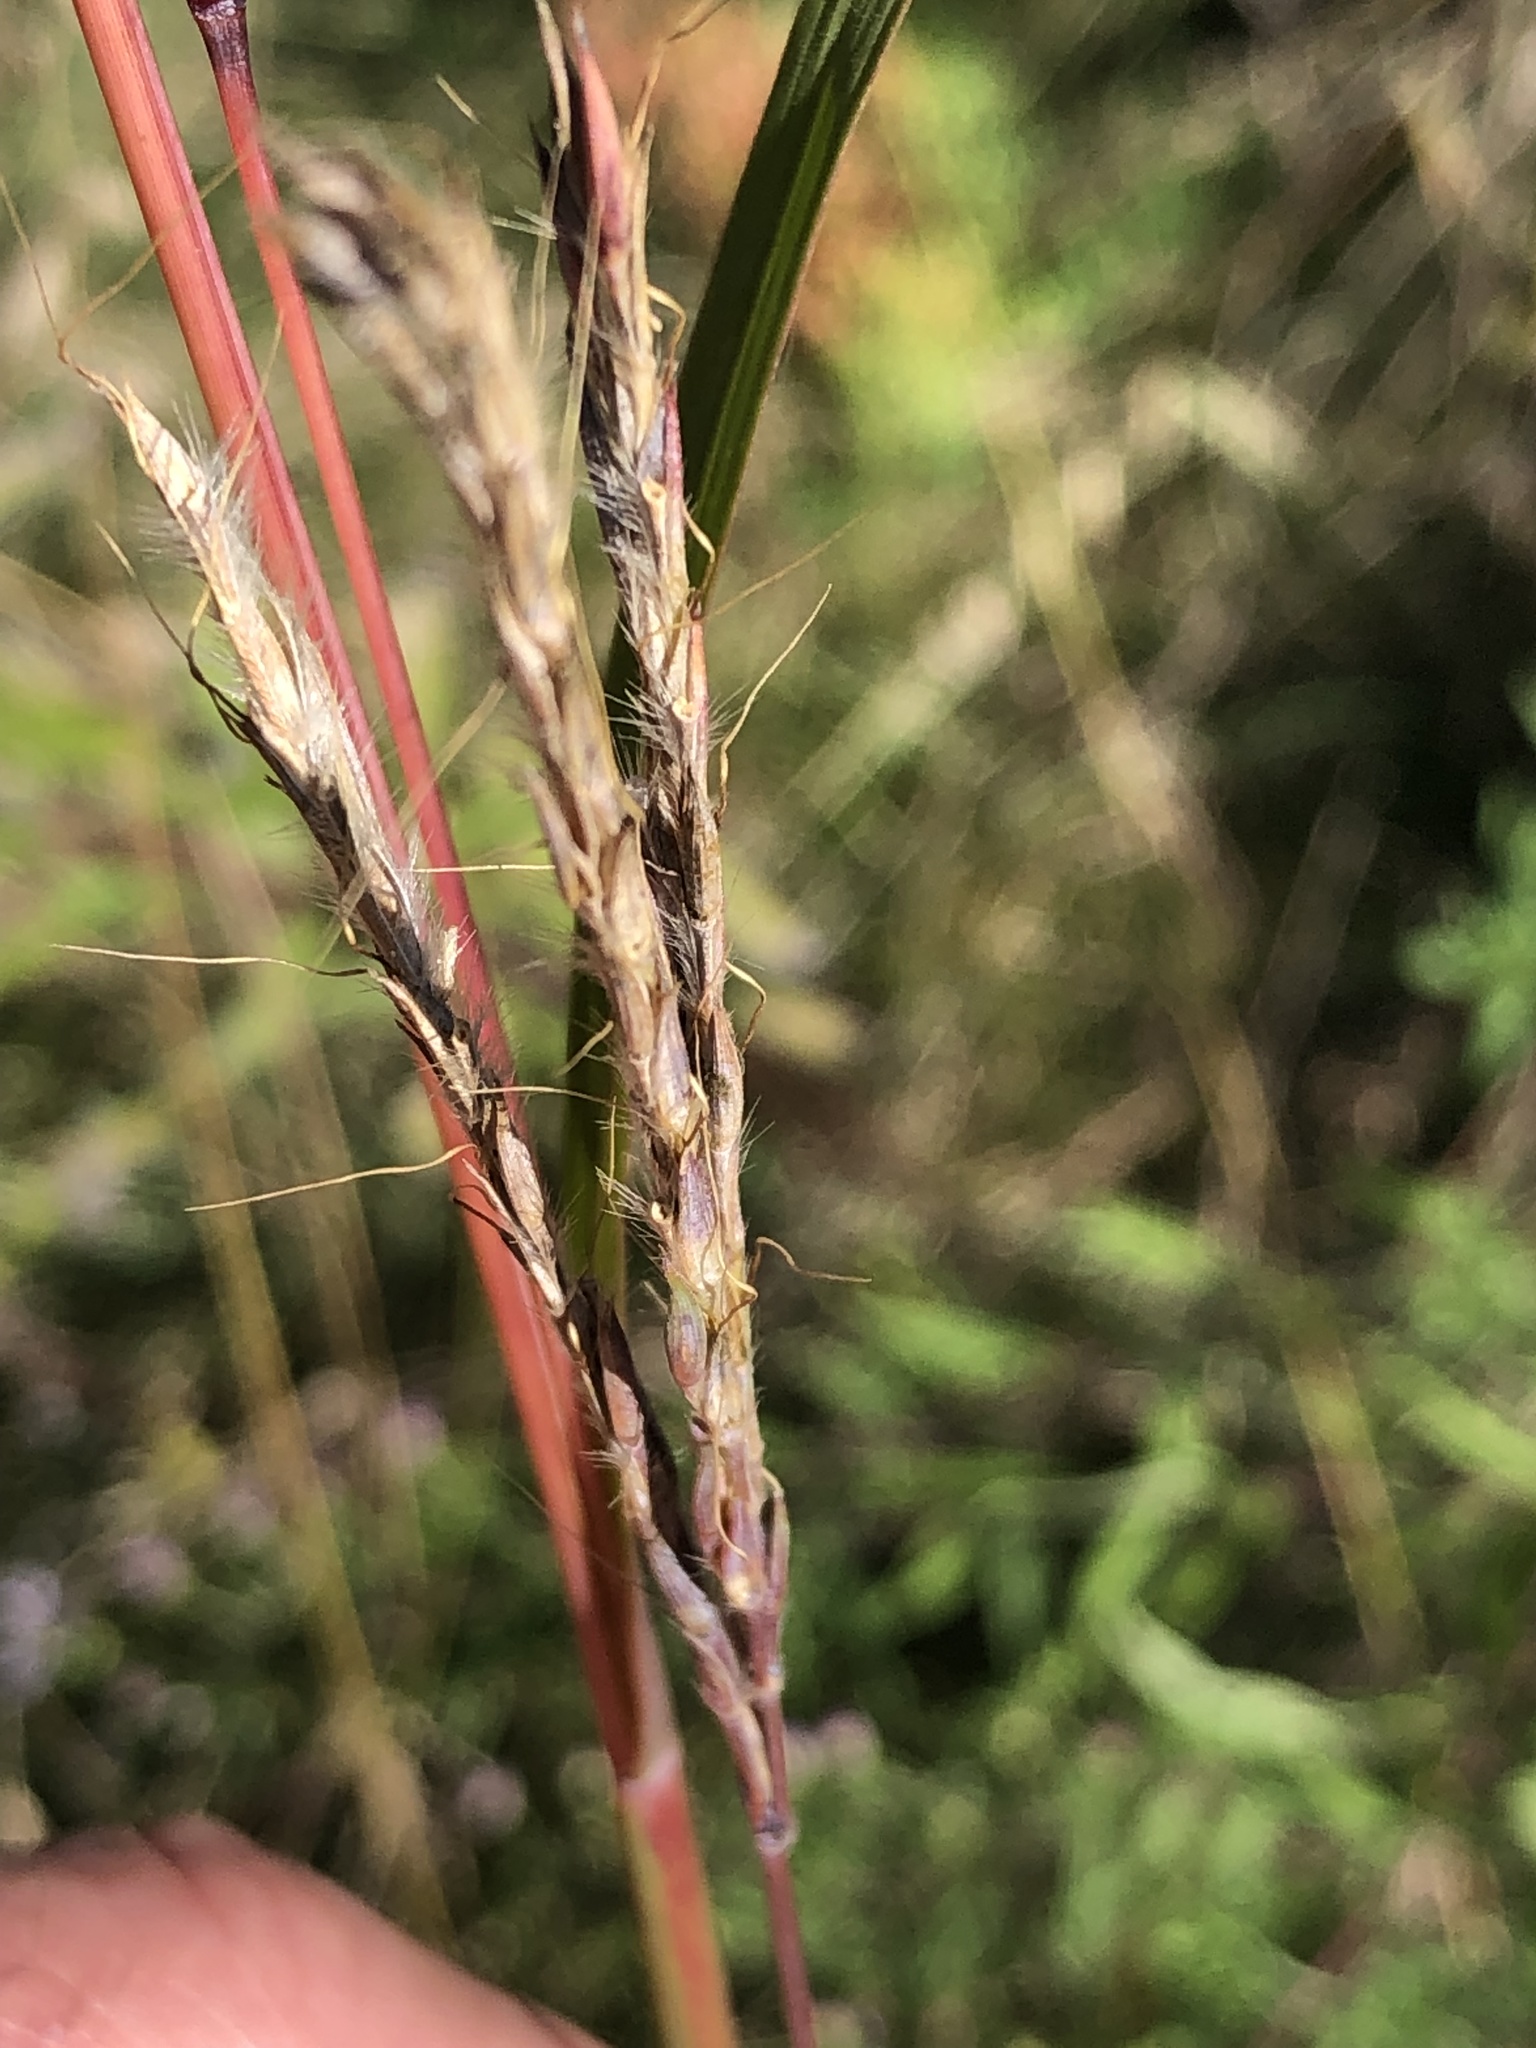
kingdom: Plantae
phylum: Tracheophyta
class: Liliopsida
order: Poales
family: Poaceae
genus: Andropogon
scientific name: Andropogon gerardi
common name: Big bluestem
